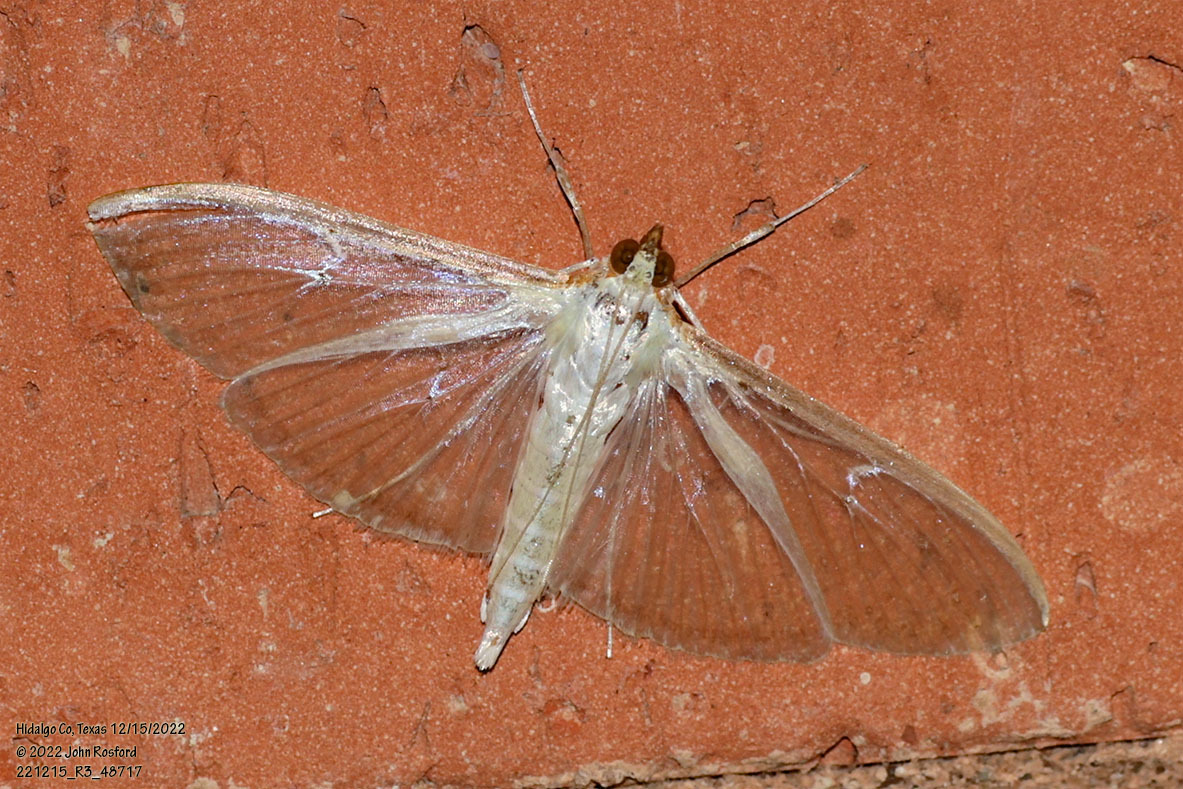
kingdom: Animalia
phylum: Arthropoda
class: Insecta
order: Lepidoptera
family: Crambidae
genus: Palpita
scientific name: Palpita quadristigmalis
